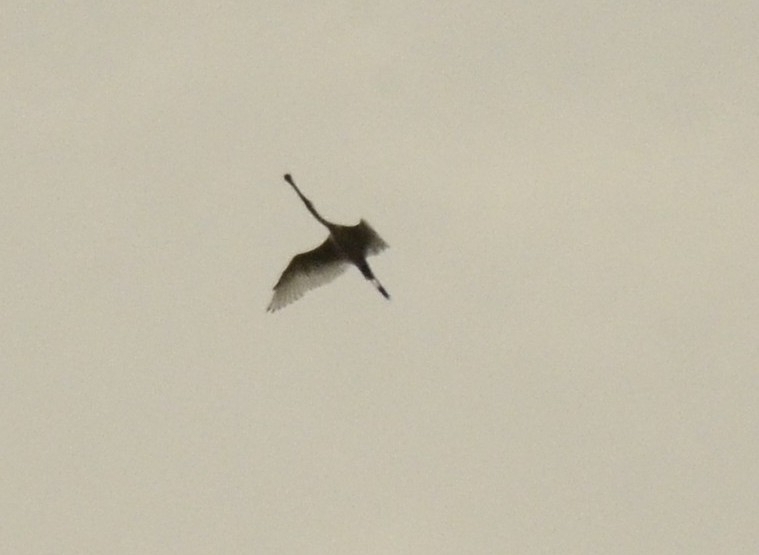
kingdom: Animalia
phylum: Chordata
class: Aves
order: Pelecaniformes
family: Threskiornithidae
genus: Platalea
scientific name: Platalea leucorodia
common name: Eurasian spoonbill
